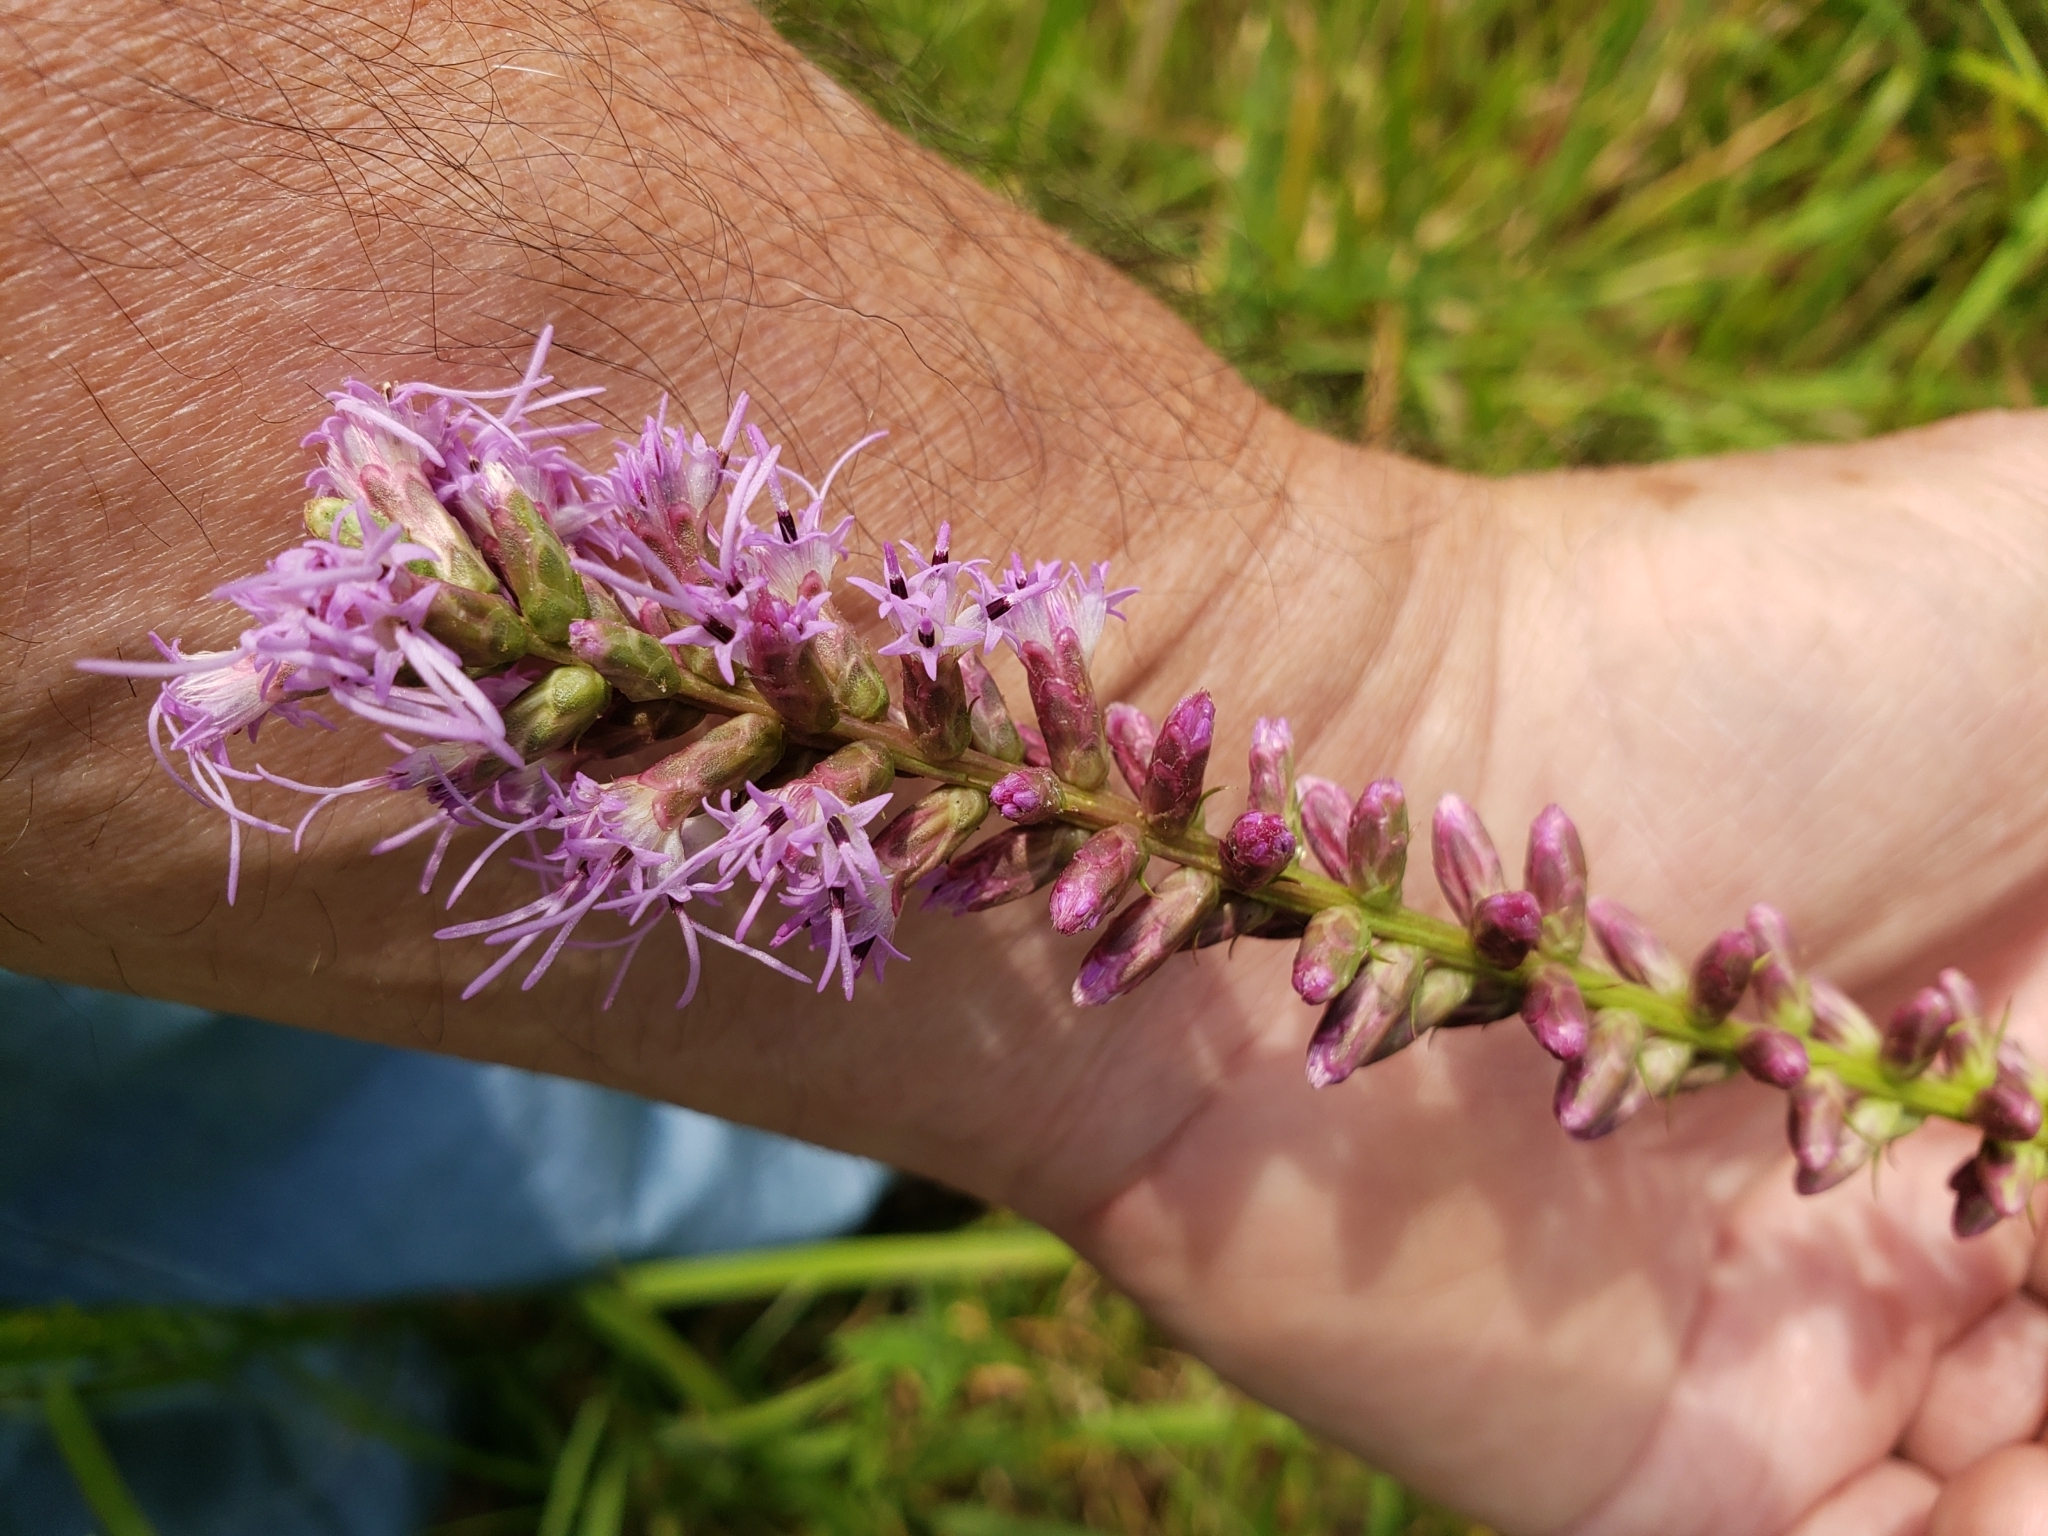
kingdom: Plantae
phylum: Tracheophyta
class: Magnoliopsida
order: Asterales
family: Asteraceae
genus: Liatris
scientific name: Liatris spicata
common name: Florist gayfeather
